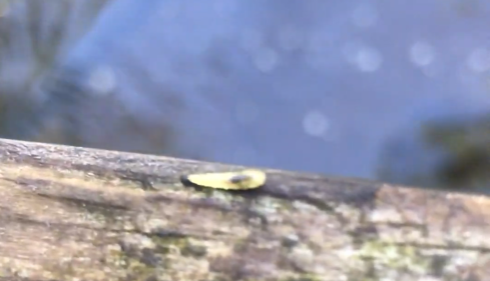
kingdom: Animalia
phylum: Arthropoda
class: Insecta
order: Diptera
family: Syrphidae
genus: Toxomerus
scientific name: Toxomerus
